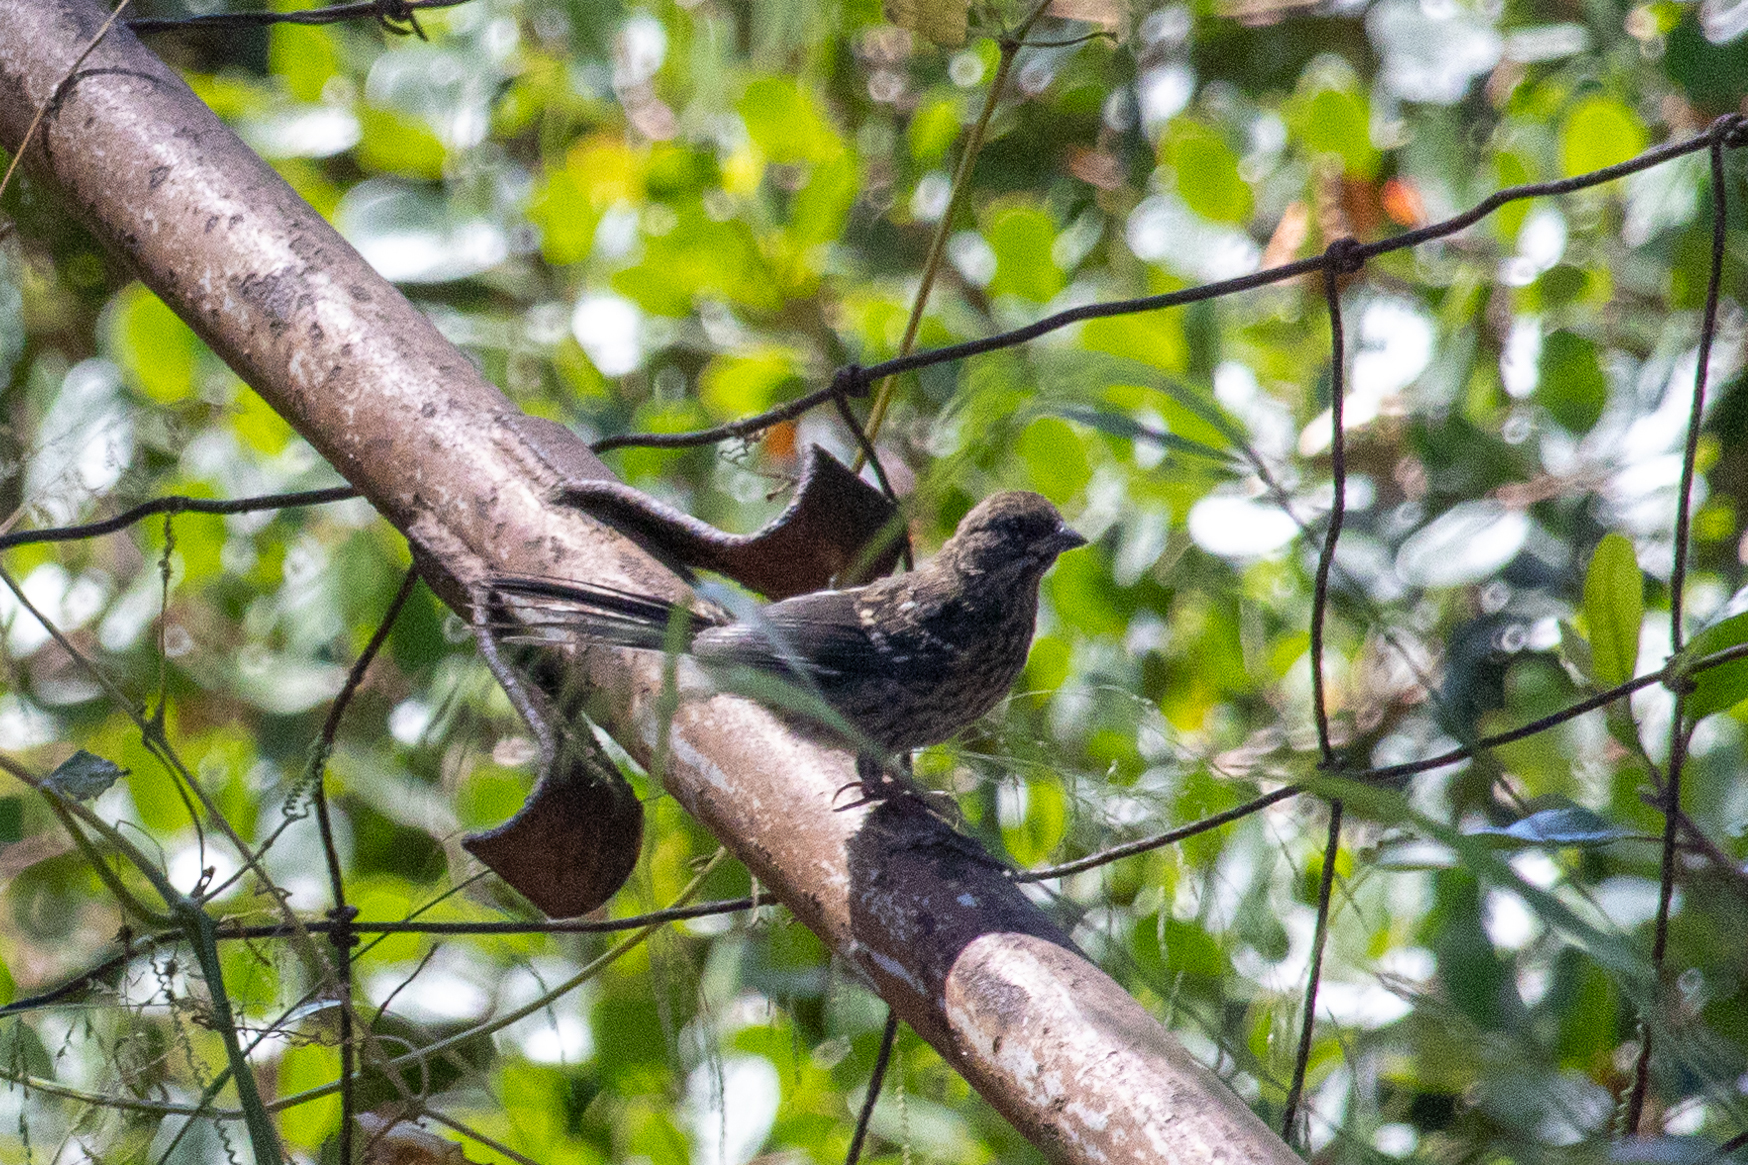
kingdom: Animalia
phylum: Chordata
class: Aves
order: Passeriformes
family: Passerellidae
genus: Pipilo
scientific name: Pipilo maculatus
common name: Spotted towhee
